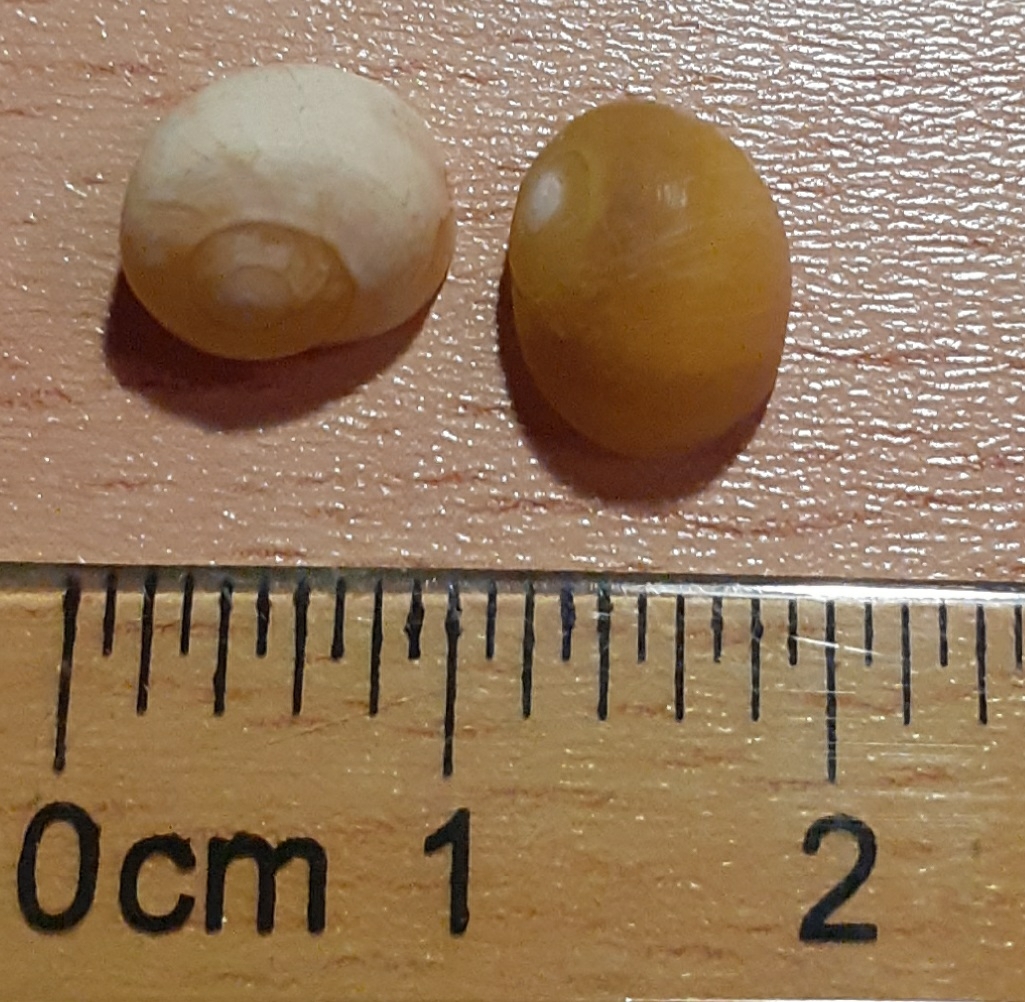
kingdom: Animalia
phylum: Mollusca
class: Gastropoda
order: Littorinimorpha
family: Littorinidae
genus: Littorina
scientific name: Littorina obtusata
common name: Flat periwinkle
